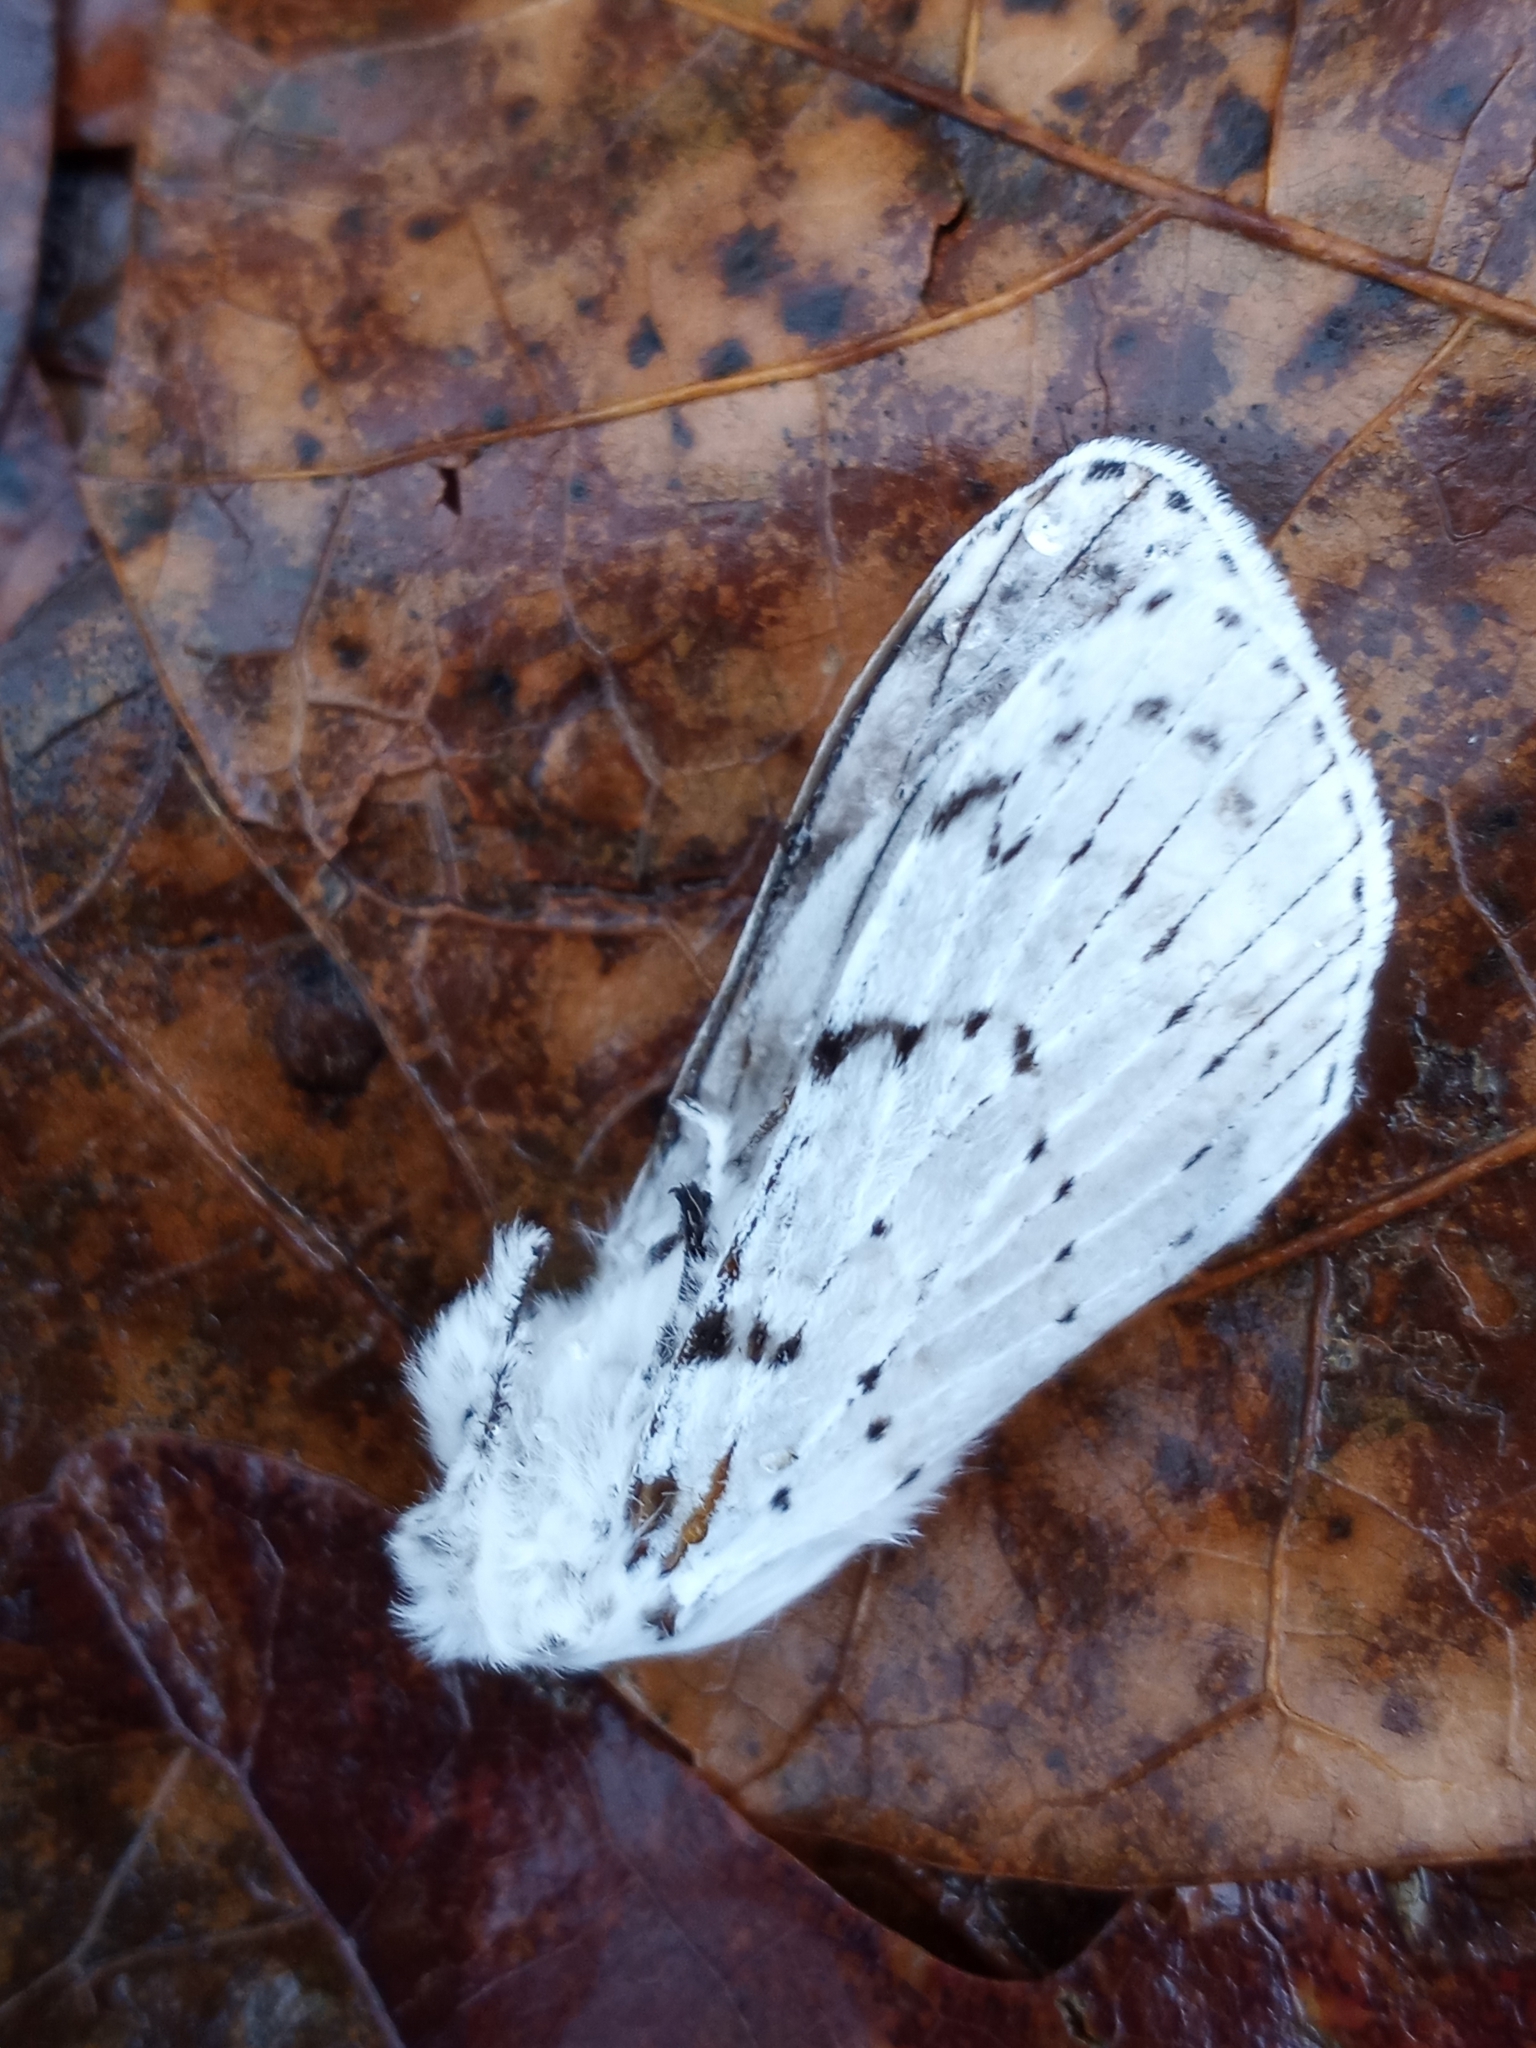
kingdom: Animalia
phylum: Arthropoda
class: Insecta
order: Lepidoptera
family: Lasiocampidae
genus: Artace
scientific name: Artace cribrarius
